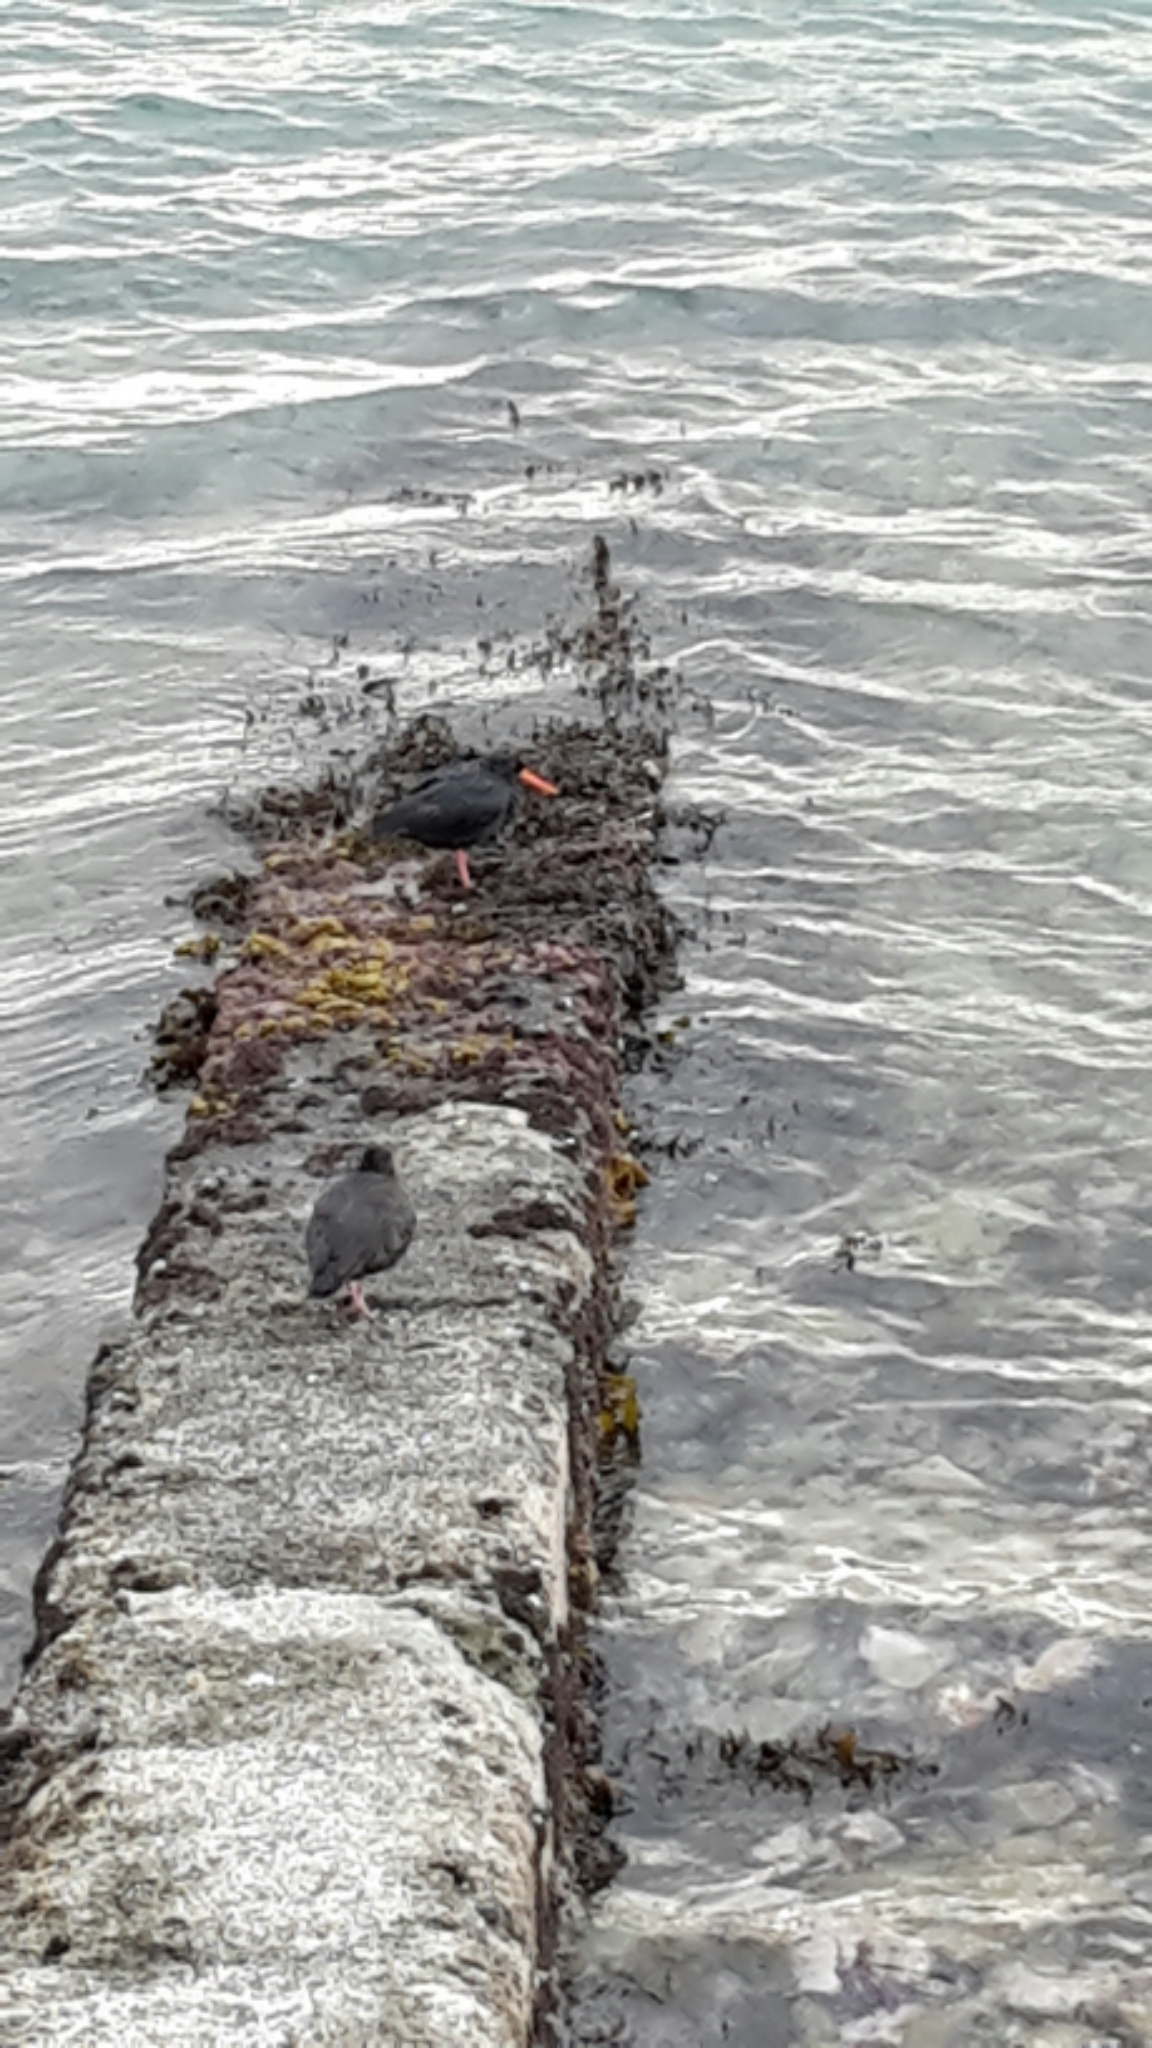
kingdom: Animalia
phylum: Chordata
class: Aves
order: Charadriiformes
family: Haematopodidae
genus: Haematopus
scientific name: Haematopus unicolor
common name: Variable oystercatcher
